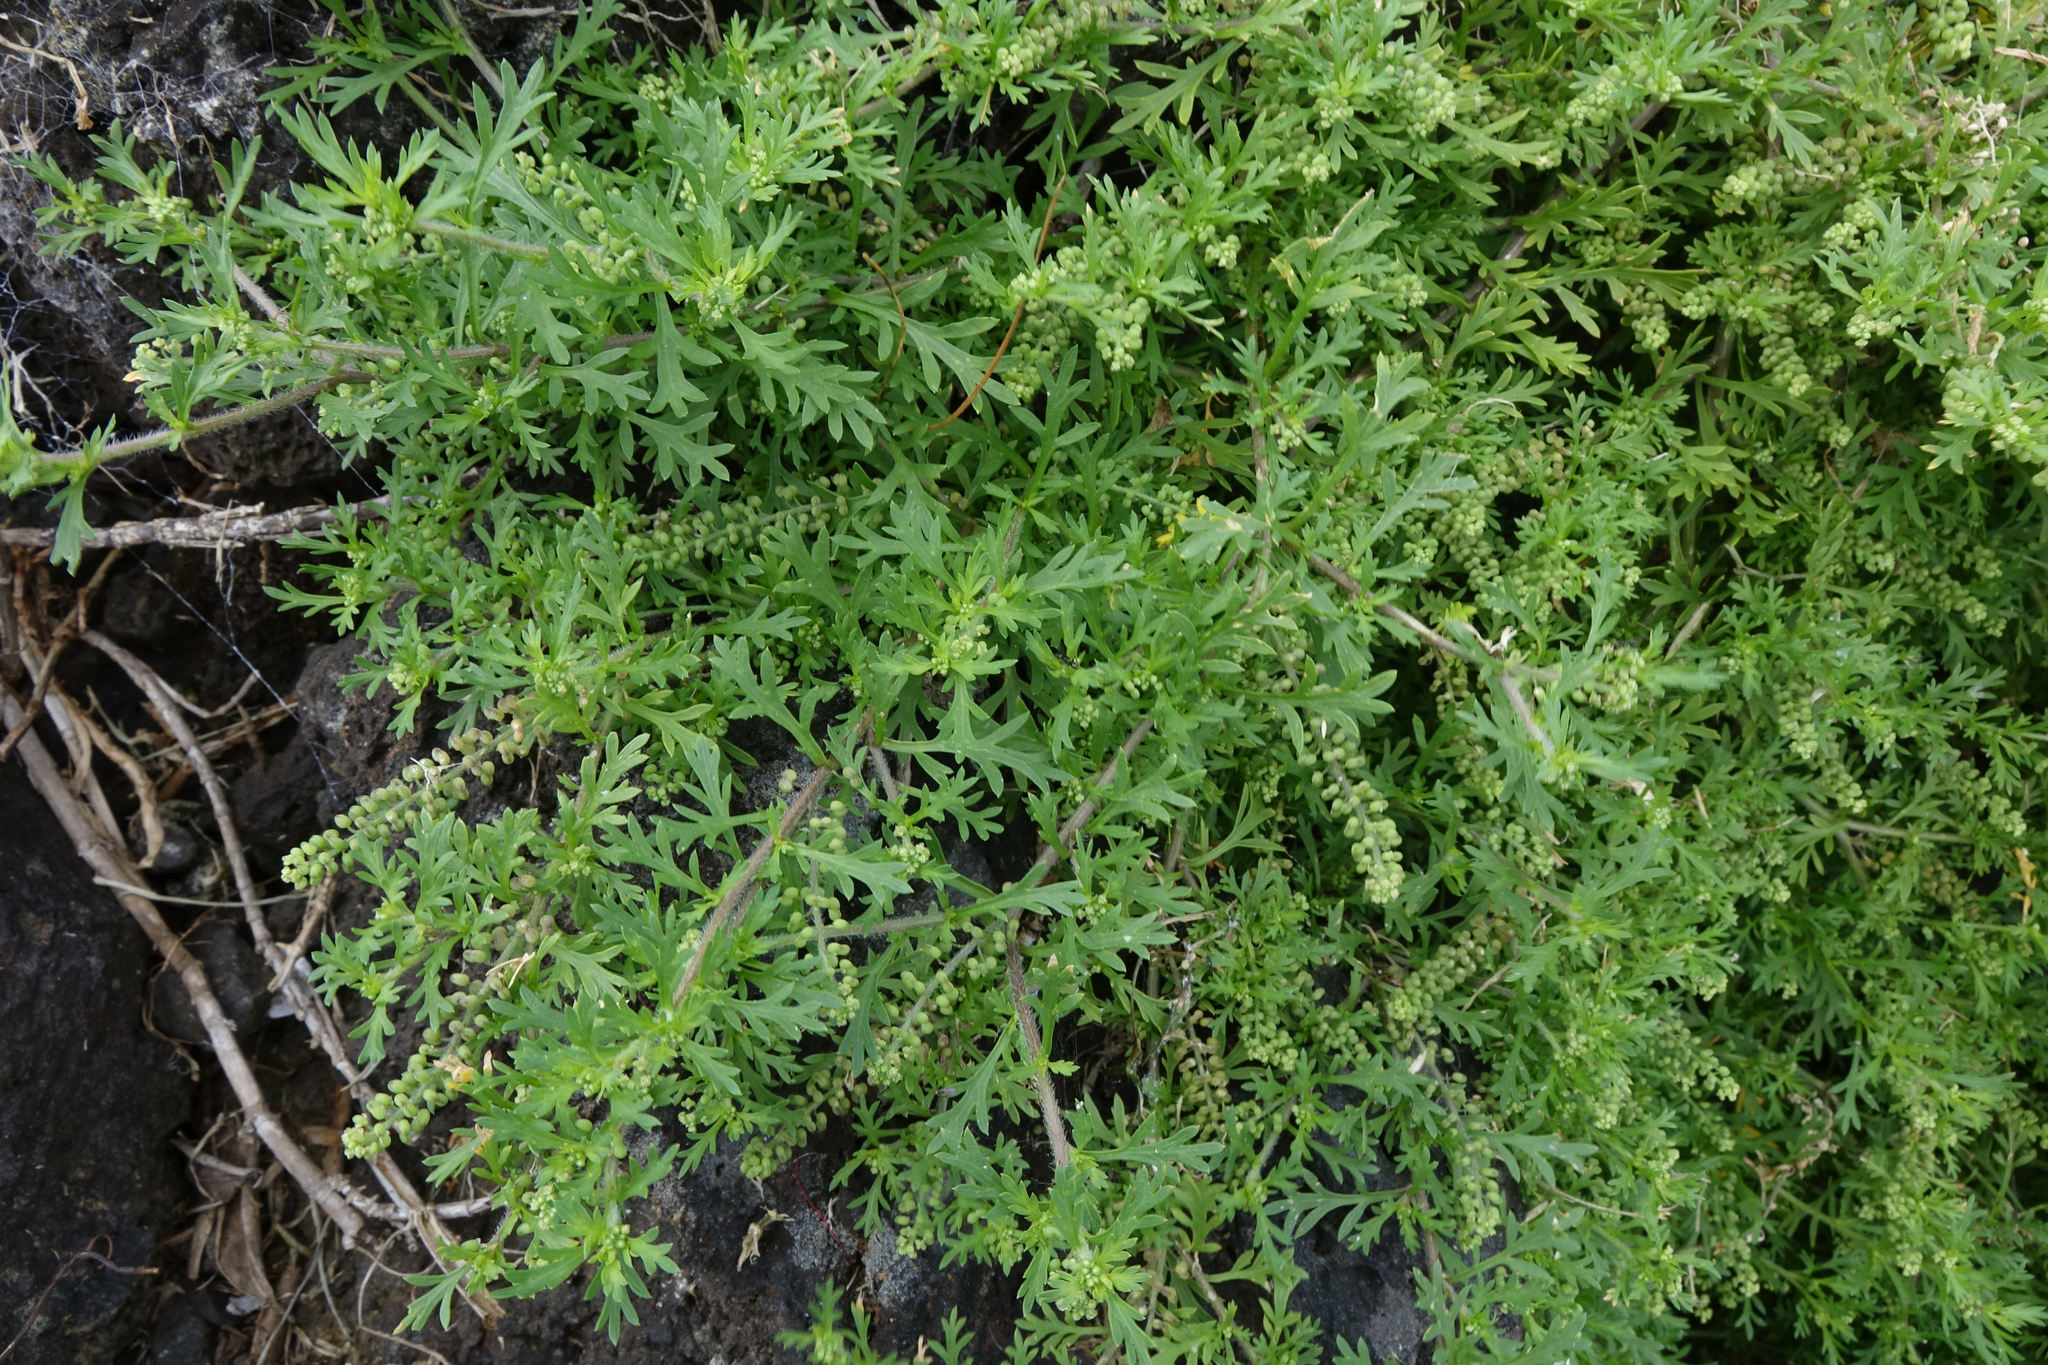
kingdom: Plantae
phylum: Tracheophyta
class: Magnoliopsida
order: Brassicales
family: Brassicaceae
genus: Lepidium
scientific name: Lepidium didymum
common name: Lesser swinecress
